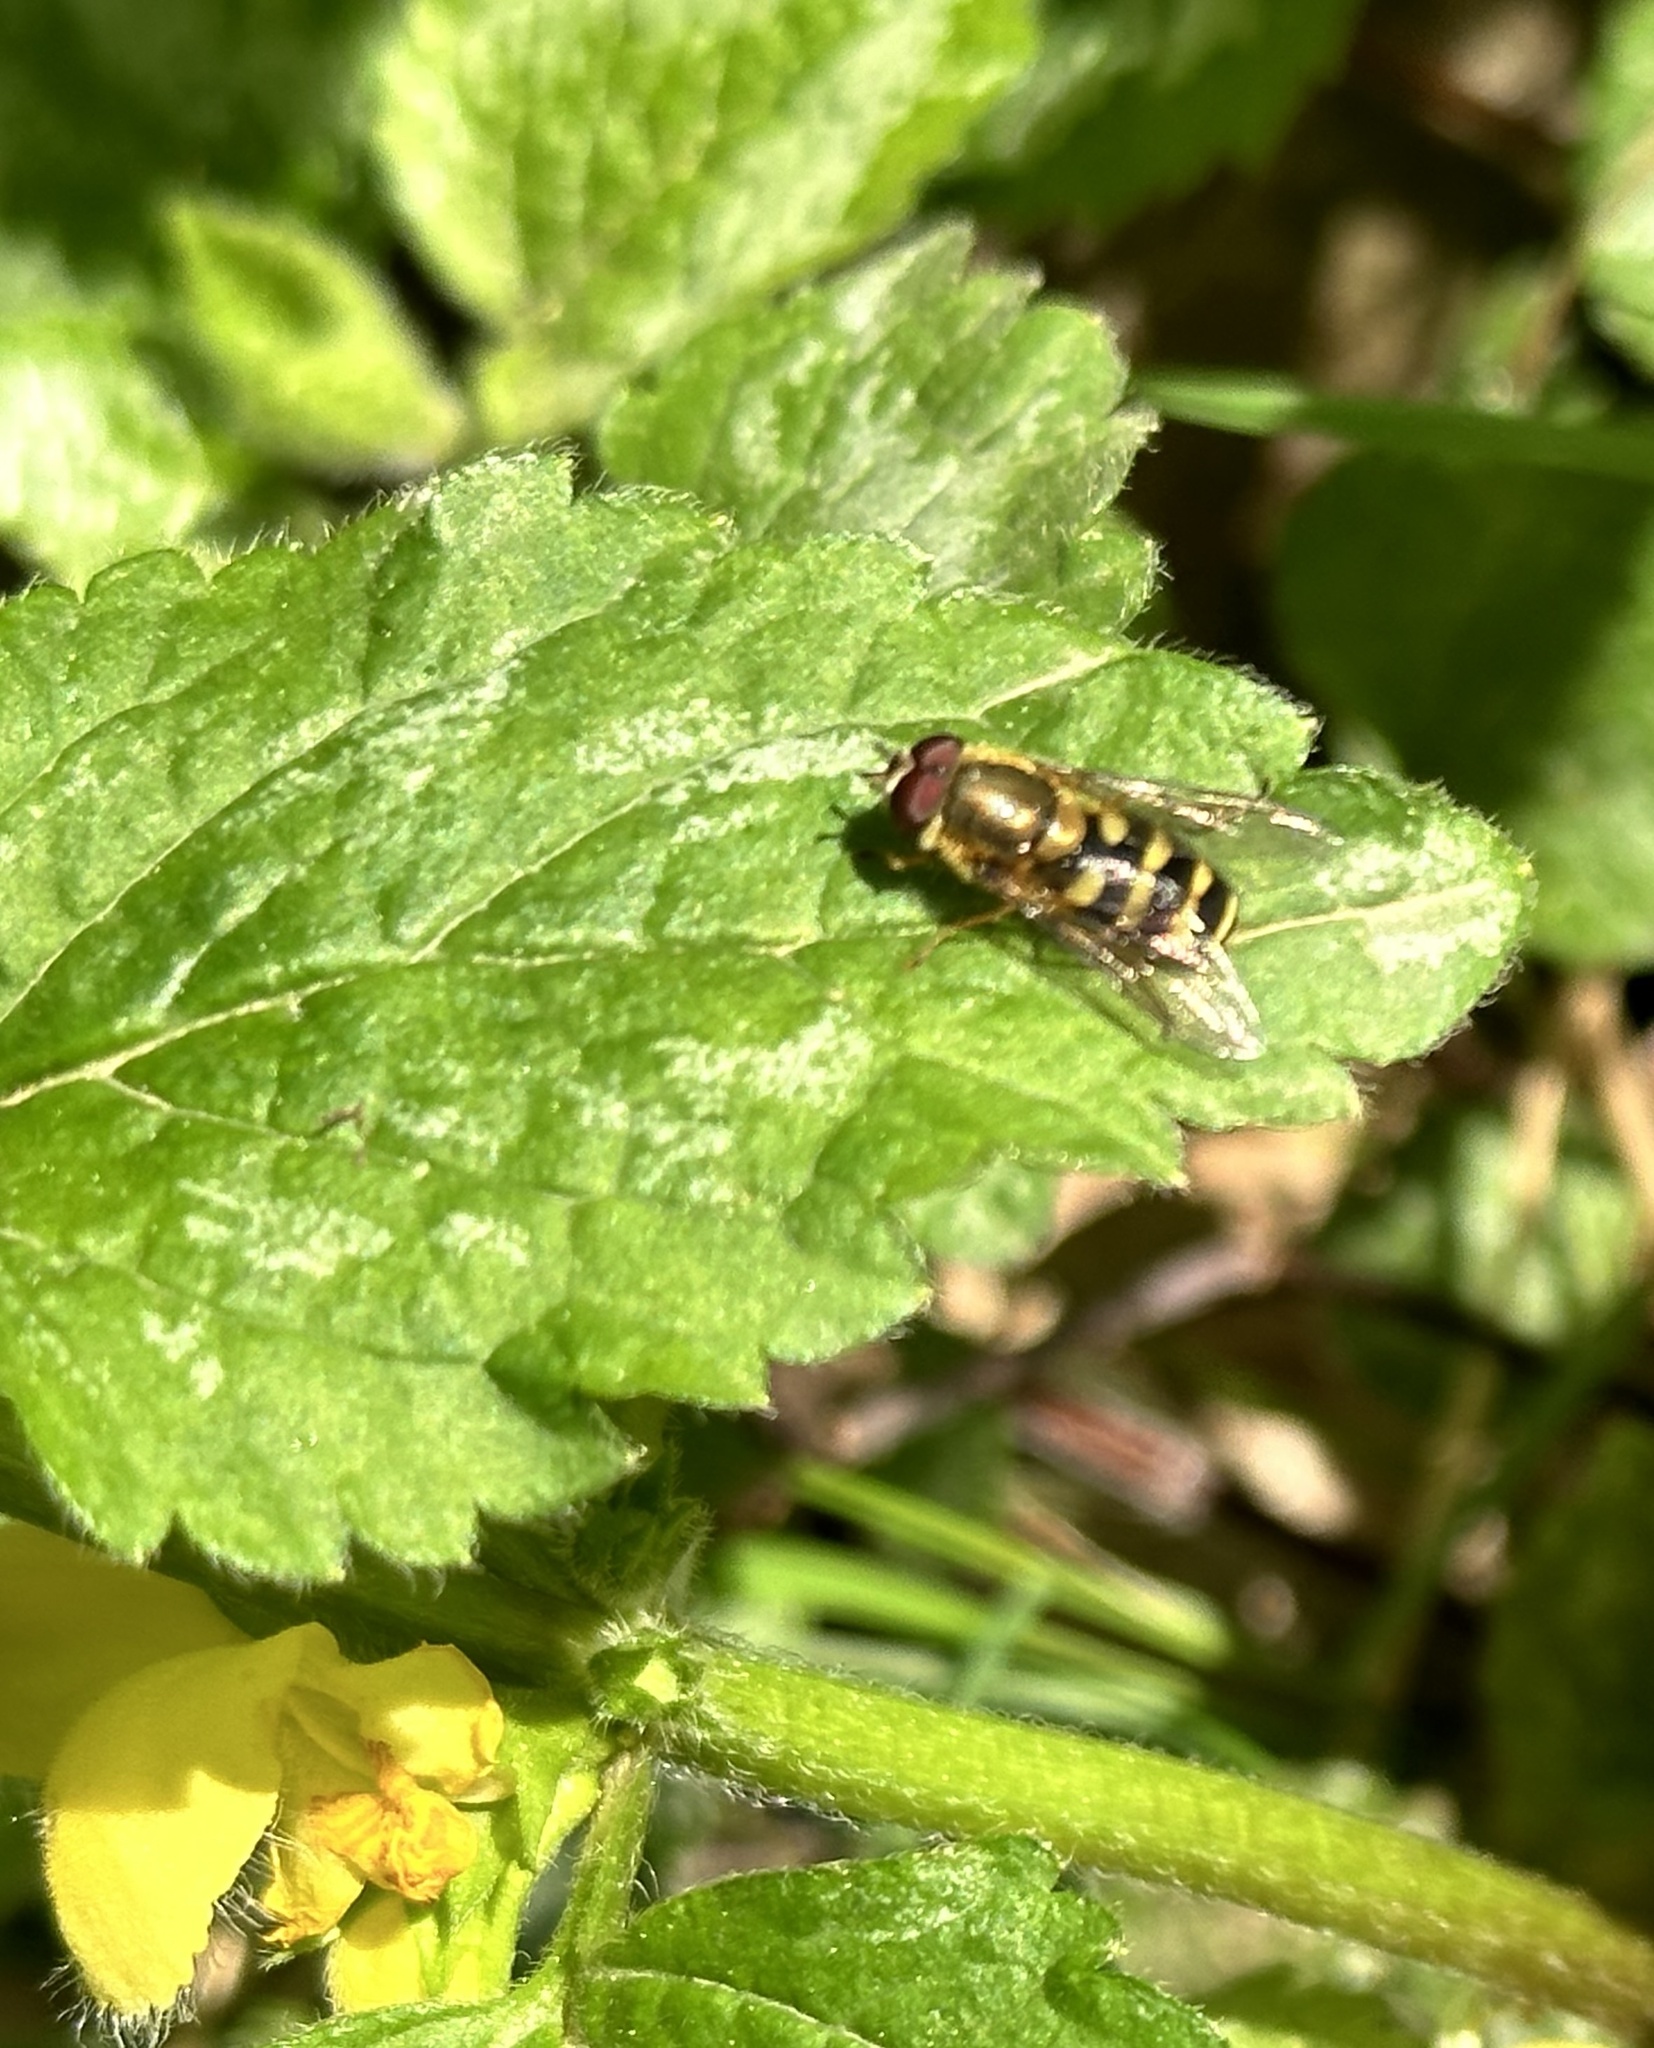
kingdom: Animalia
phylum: Arthropoda
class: Insecta
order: Diptera
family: Syrphidae
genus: Eupeodes
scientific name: Eupeodes corollae
